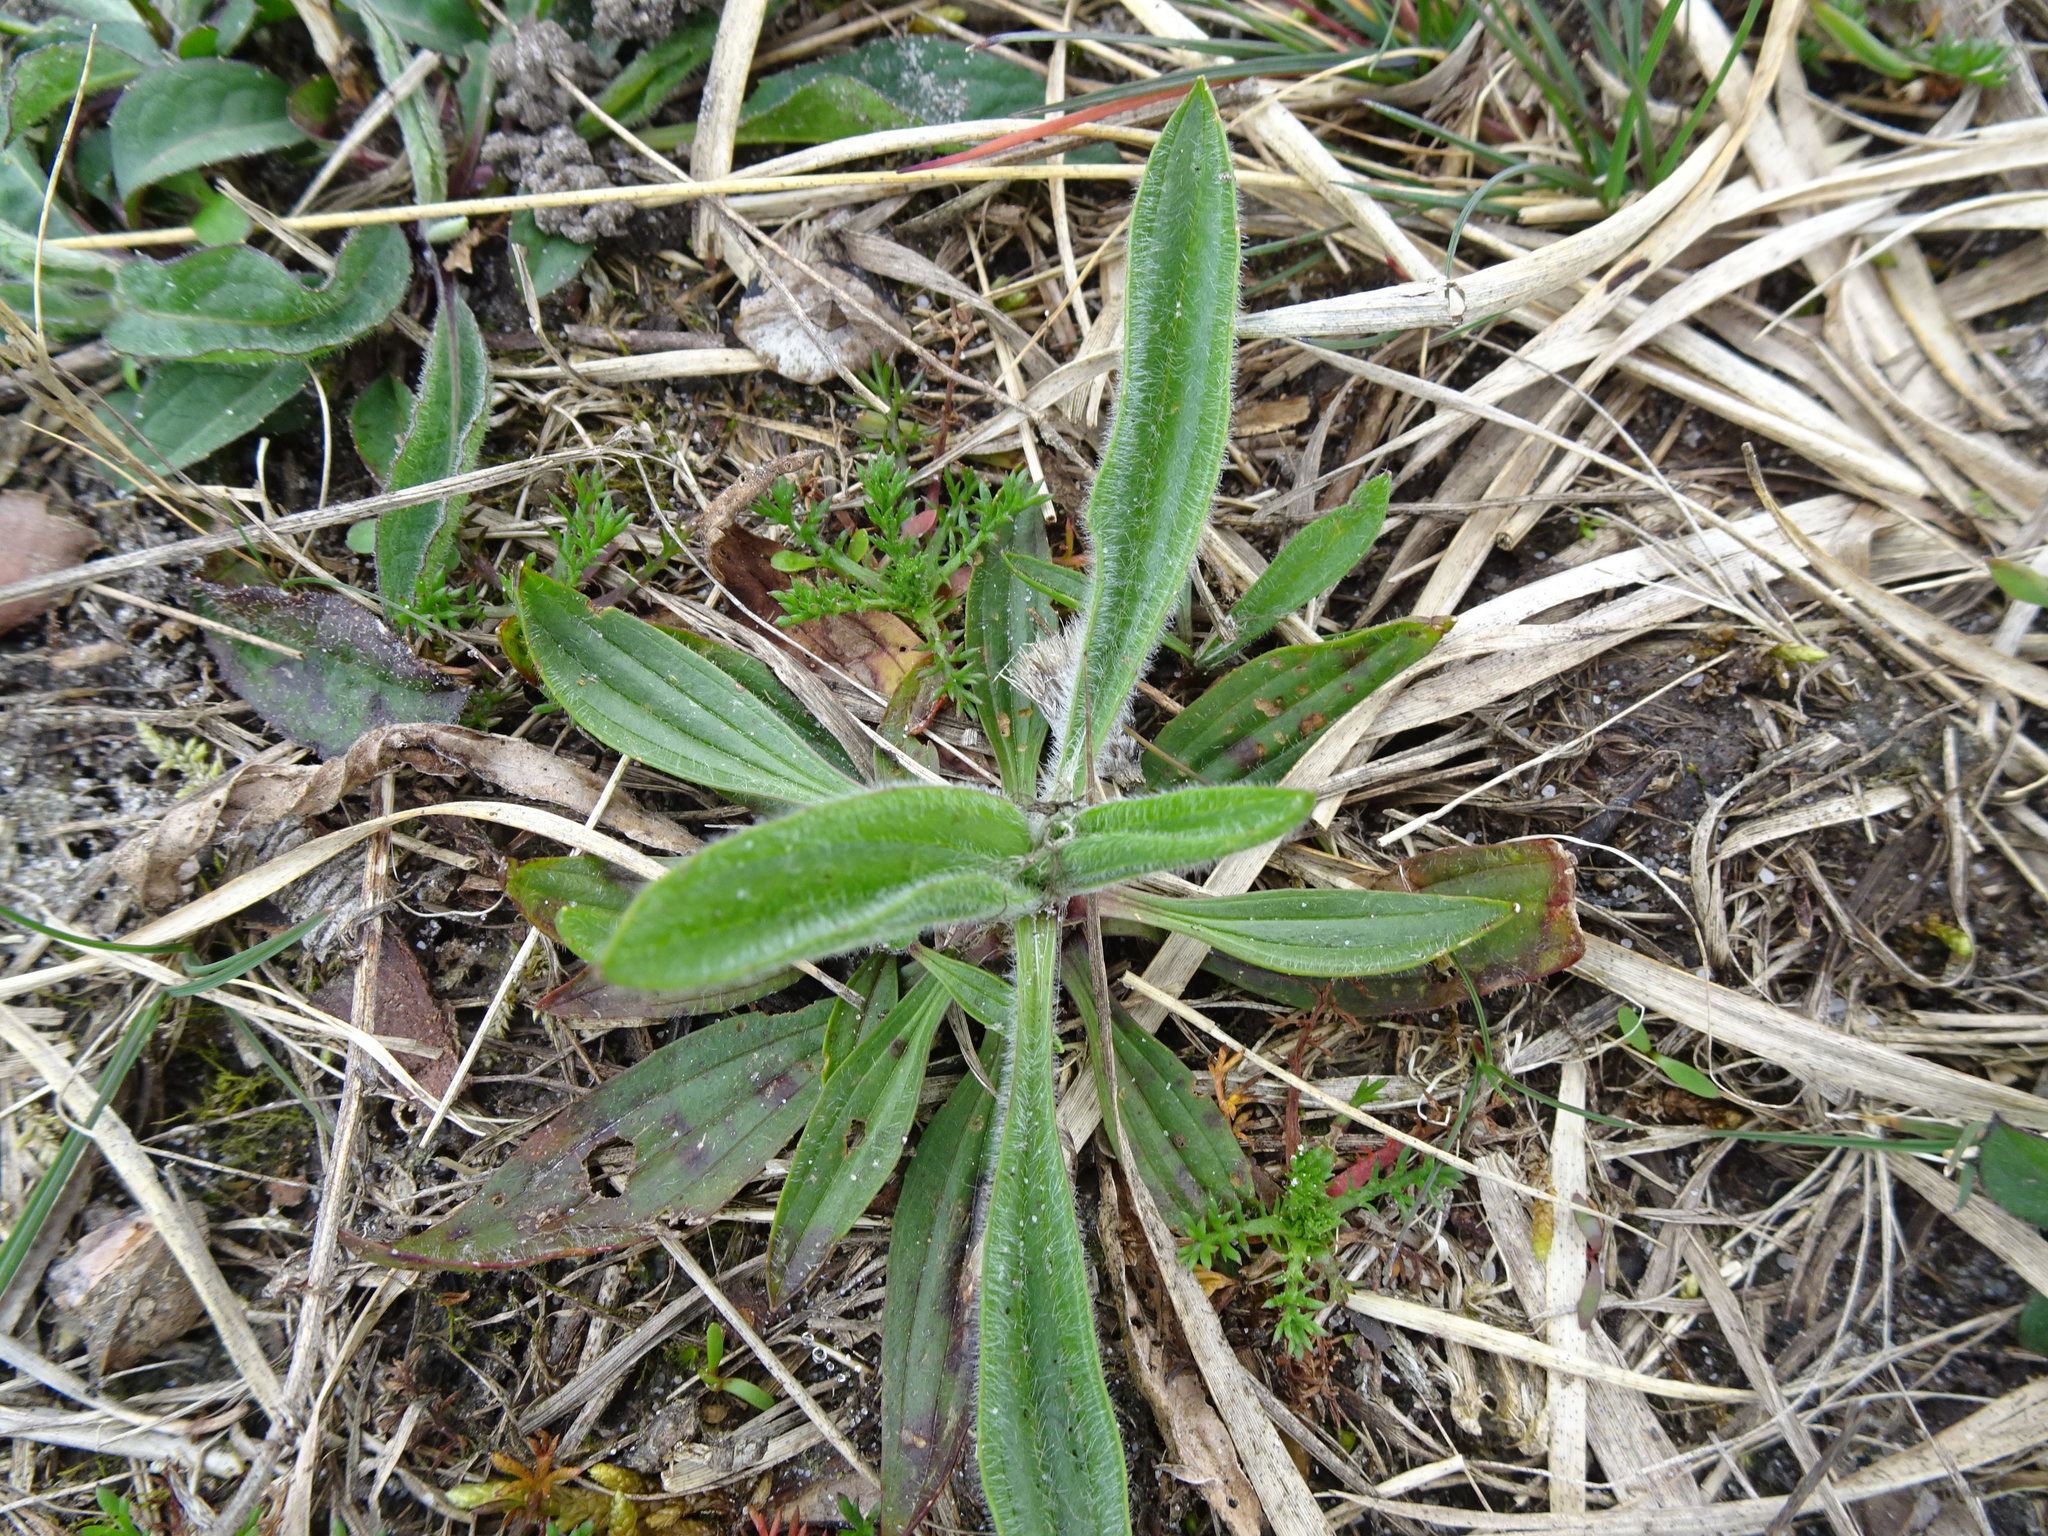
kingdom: Plantae
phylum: Tracheophyta
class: Magnoliopsida
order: Lamiales
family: Plantaginaceae
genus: Plantago
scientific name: Plantago lanceolata
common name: Ribwort plantain
